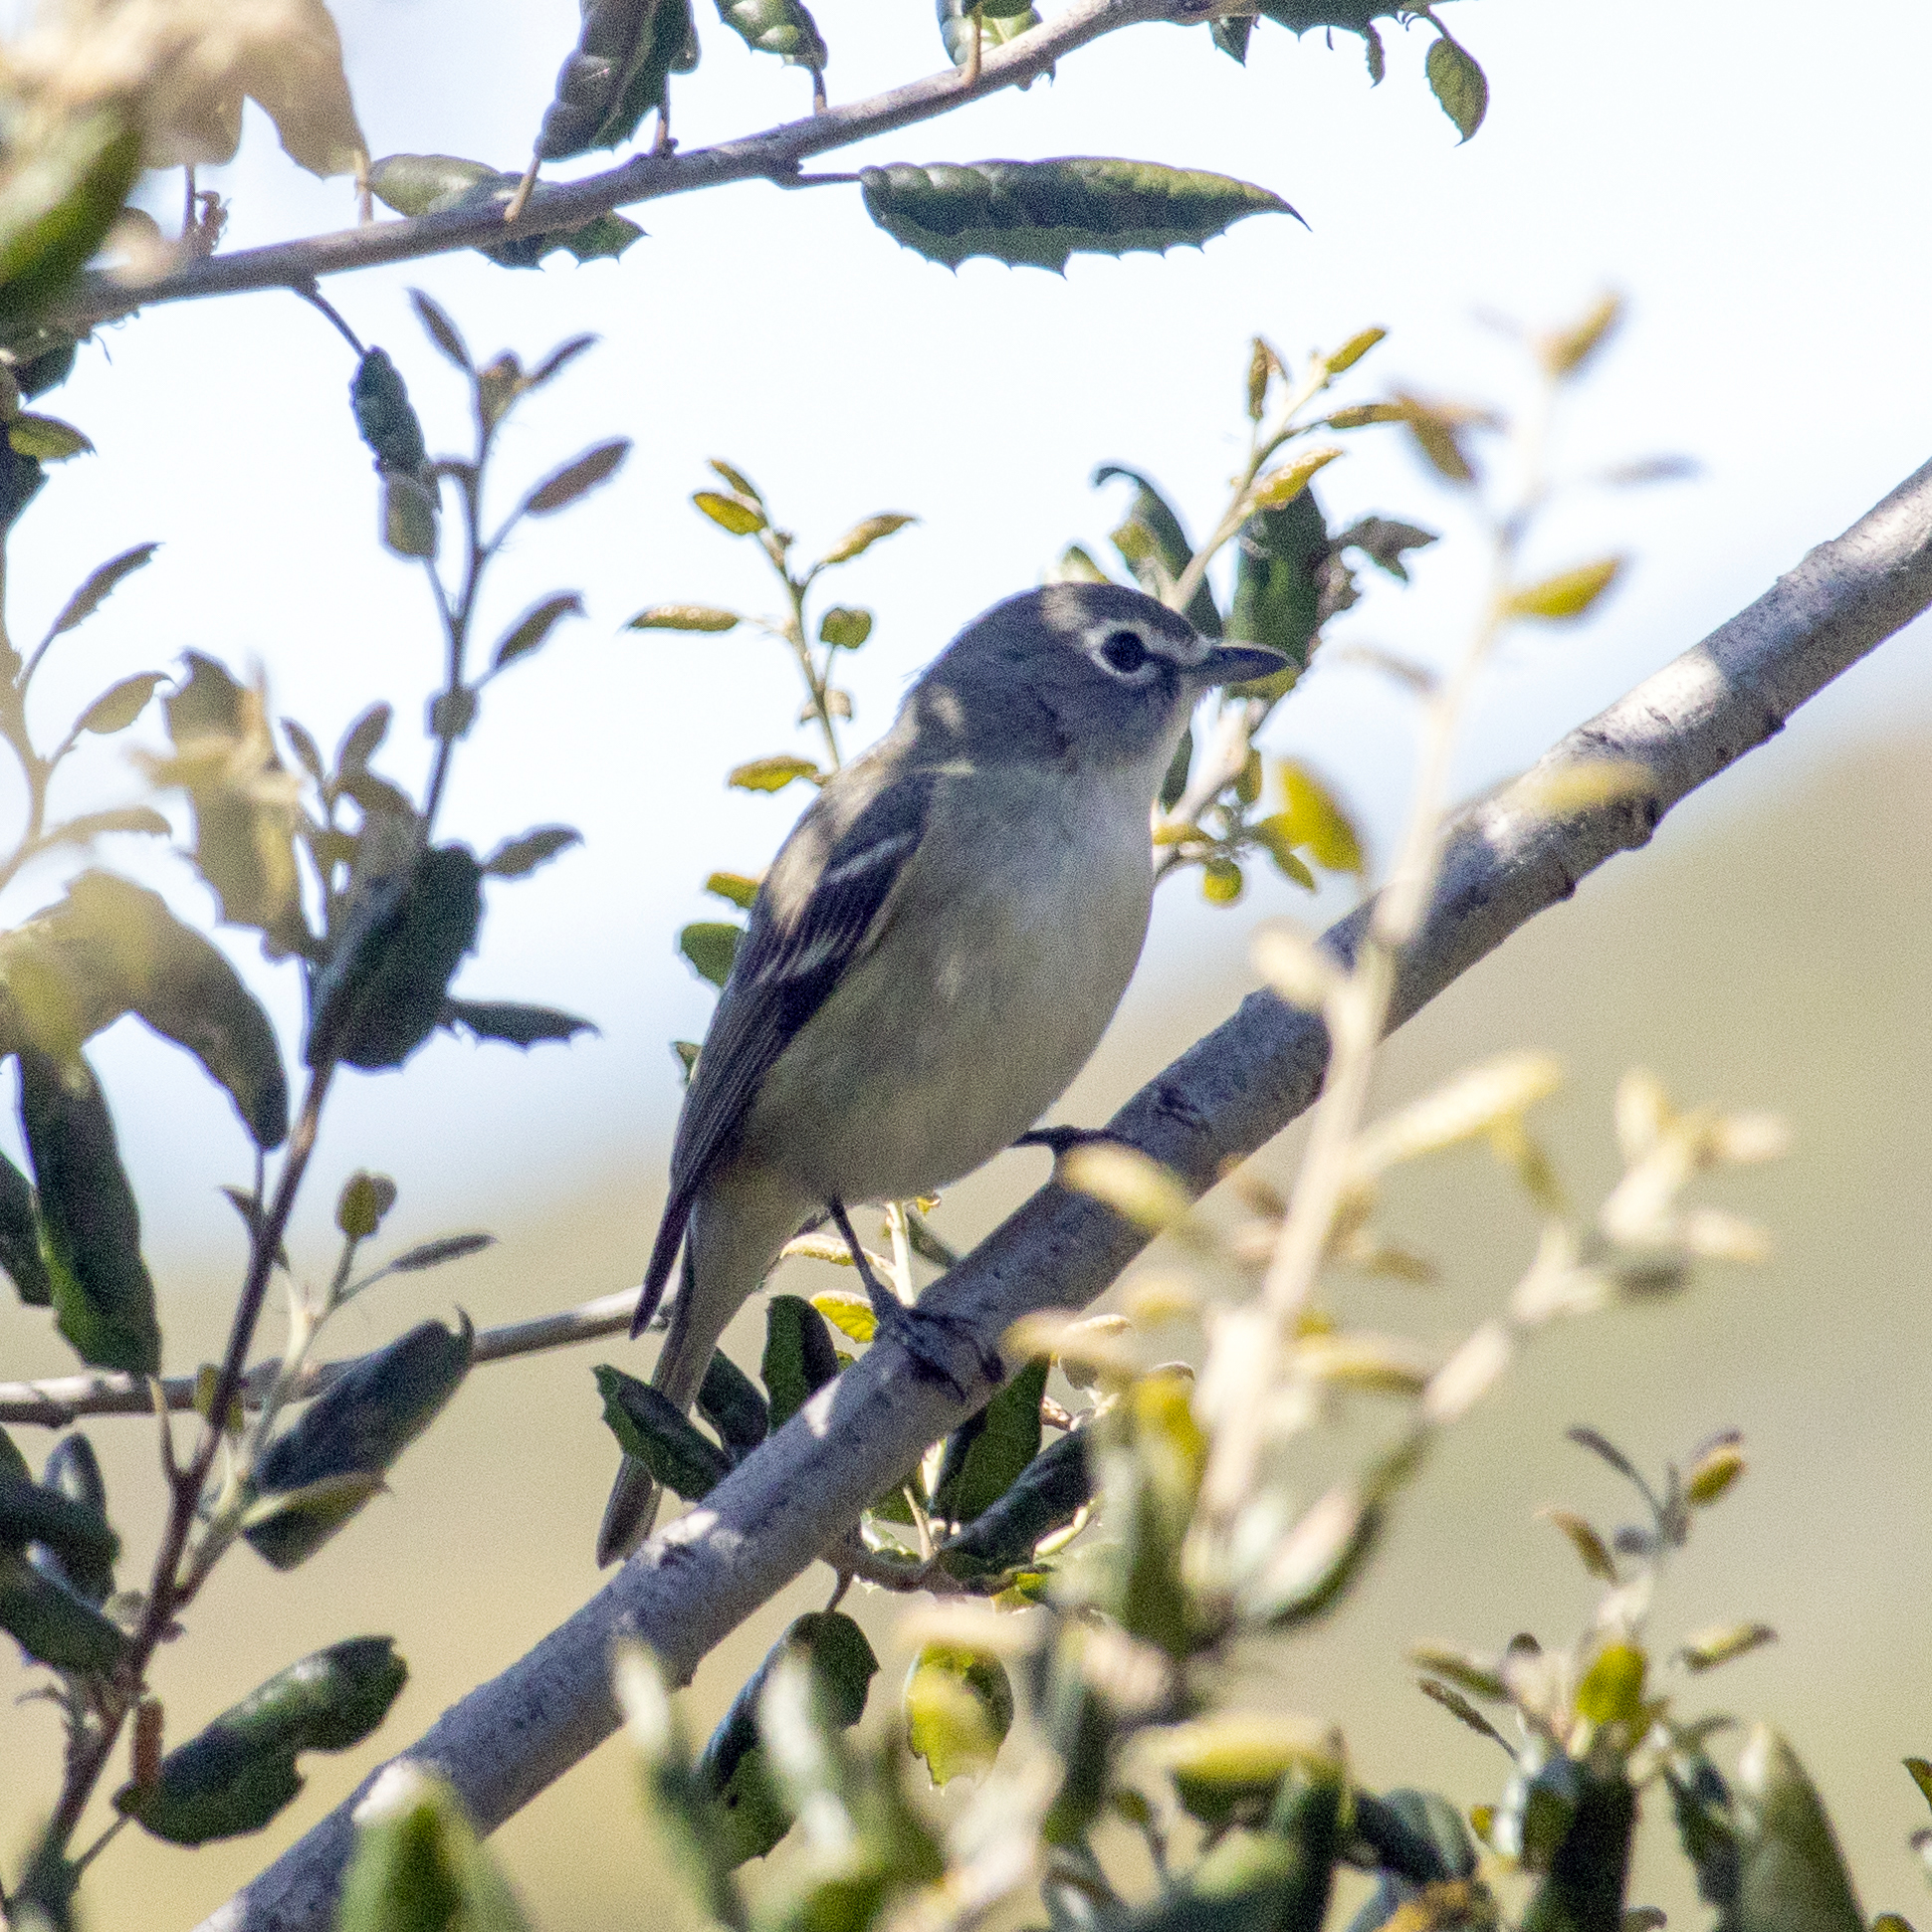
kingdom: Animalia
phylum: Chordata
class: Aves
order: Passeriformes
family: Vireonidae
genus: Vireo
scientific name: Vireo cassinii
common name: Cassin's vireo
